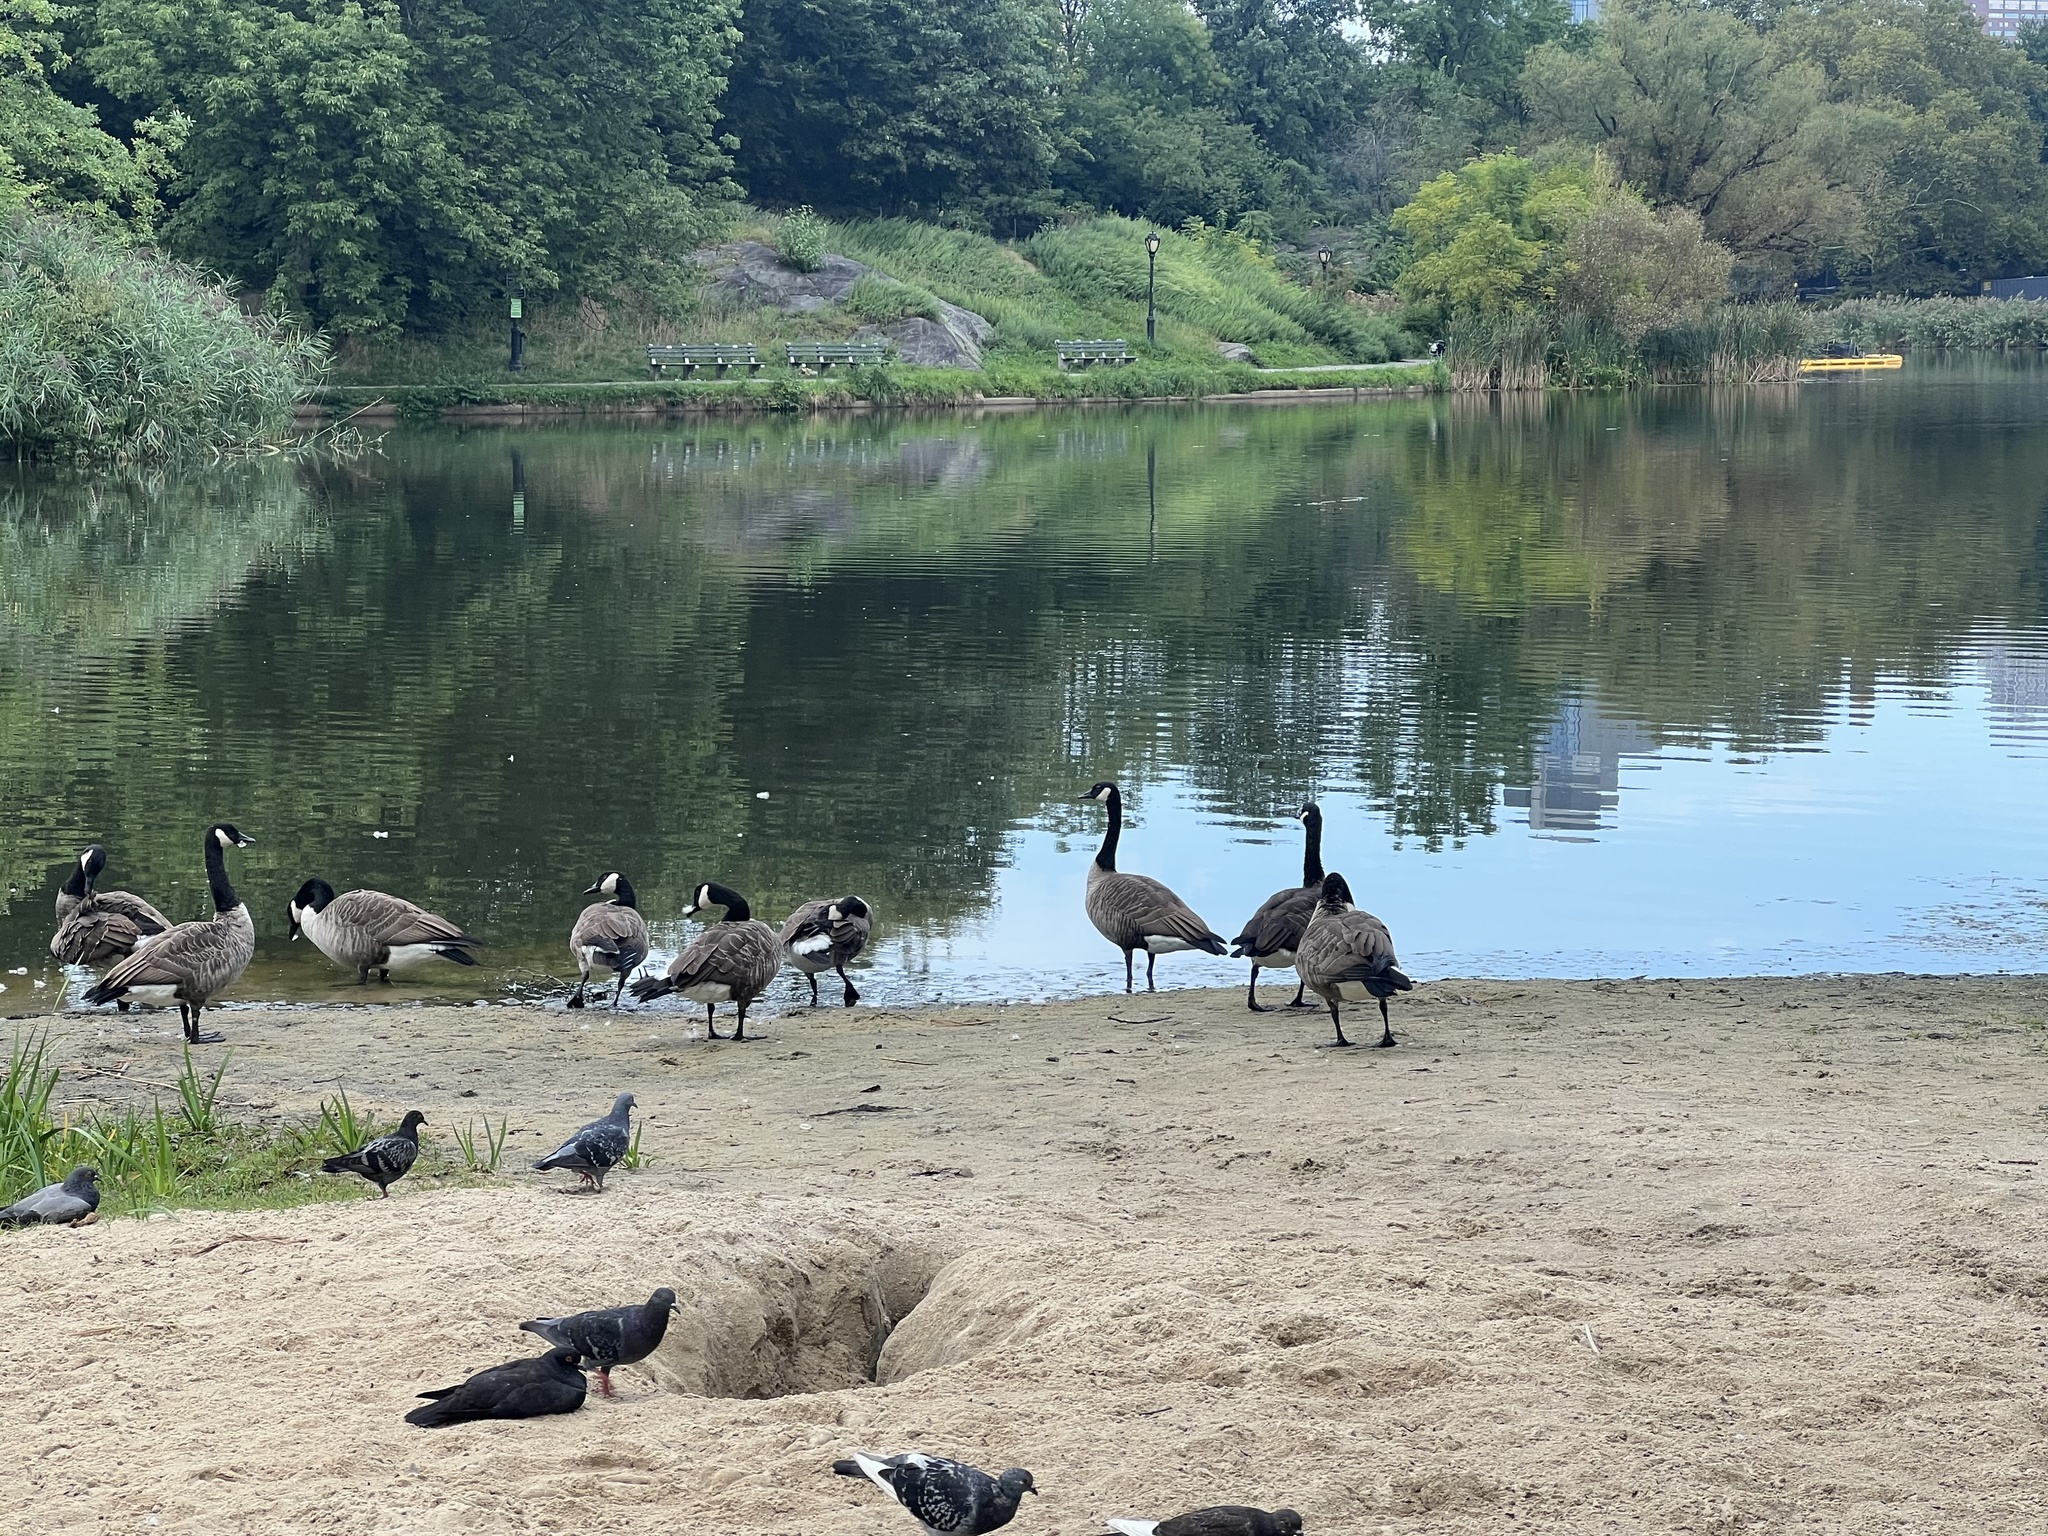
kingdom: Animalia
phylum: Chordata
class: Aves
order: Anseriformes
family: Anatidae
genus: Branta
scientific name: Branta canadensis
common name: Canada goose
